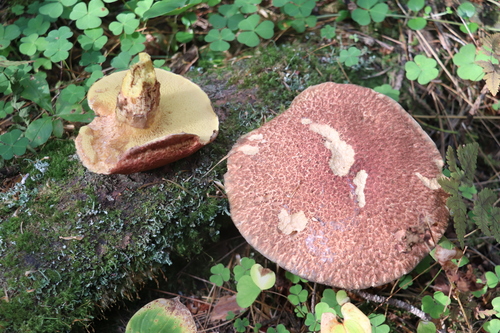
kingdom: Fungi
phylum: Basidiomycota
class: Agaricomycetes
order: Boletales
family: Suillaceae
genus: Suillus
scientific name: Suillus spraguei
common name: Painted suillus
